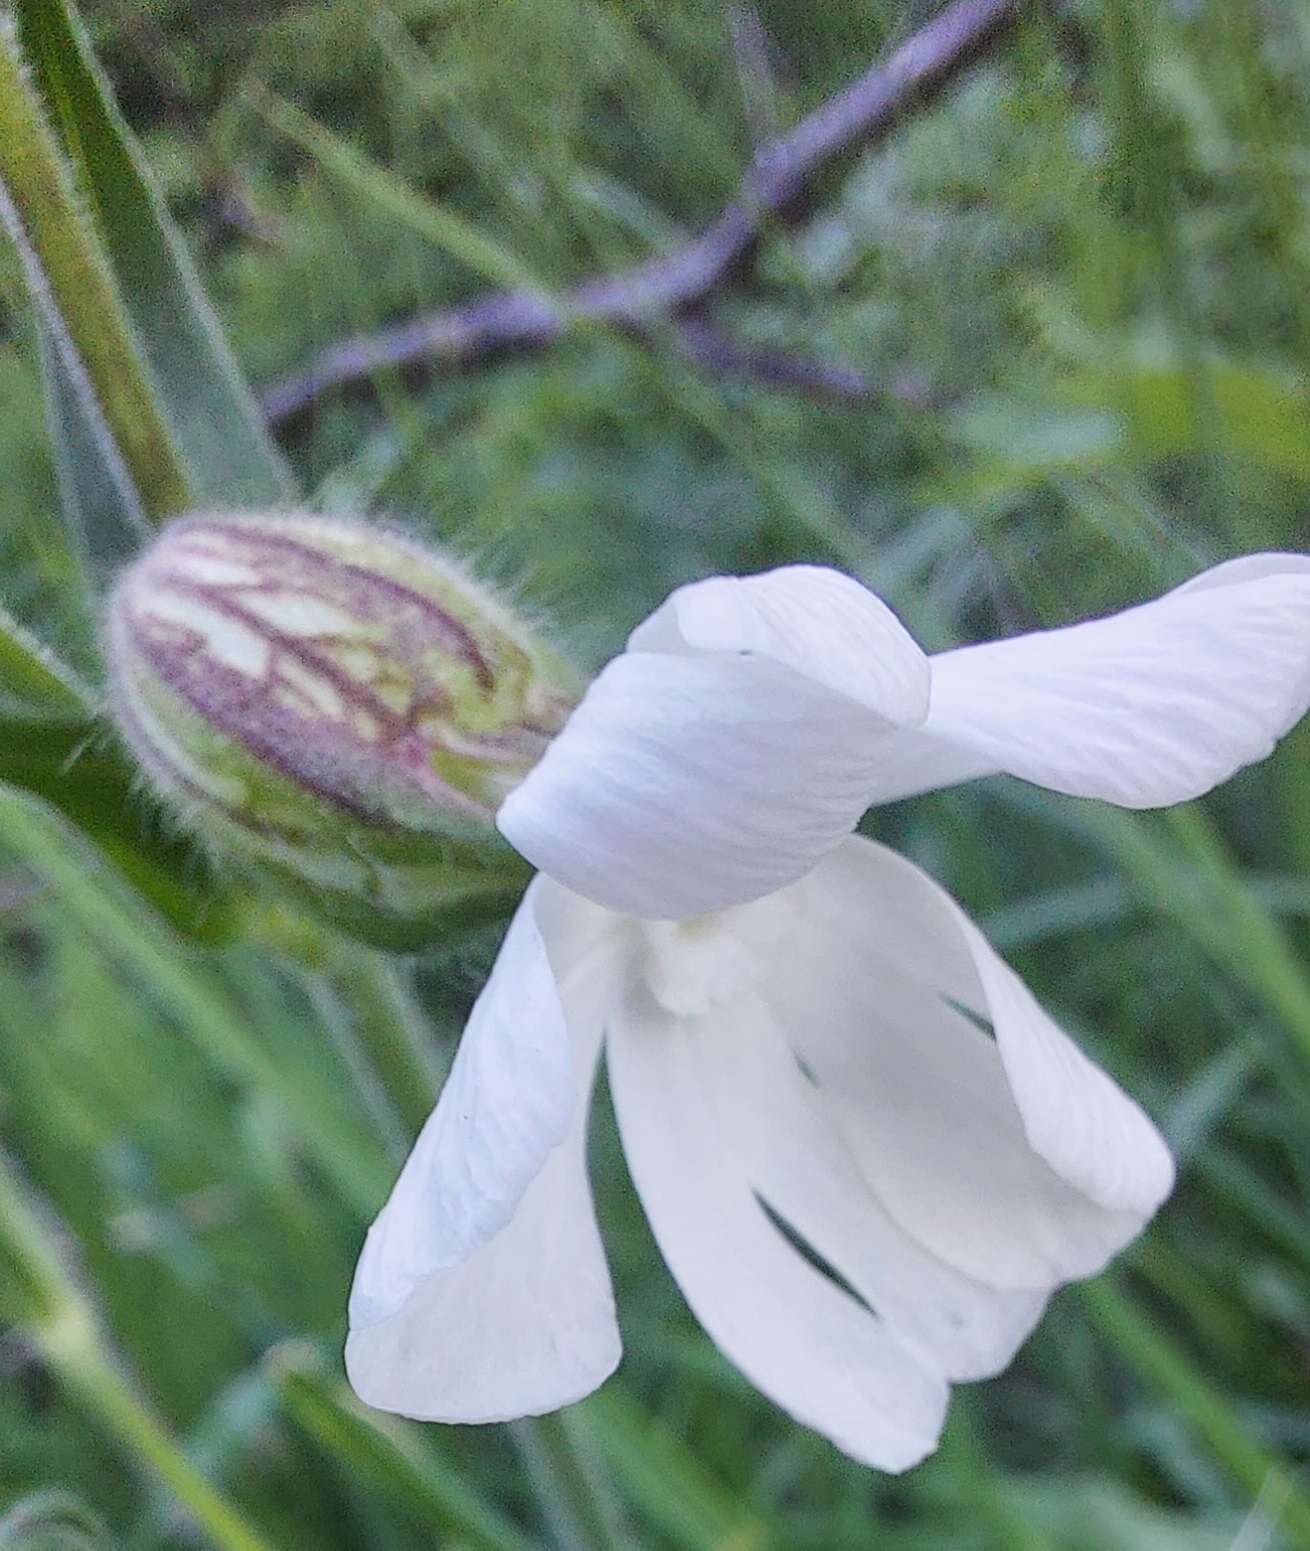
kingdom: Plantae
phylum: Tracheophyta
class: Magnoliopsida
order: Caryophyllales
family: Caryophyllaceae
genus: Silene
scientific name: Silene latifolia
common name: White campion
